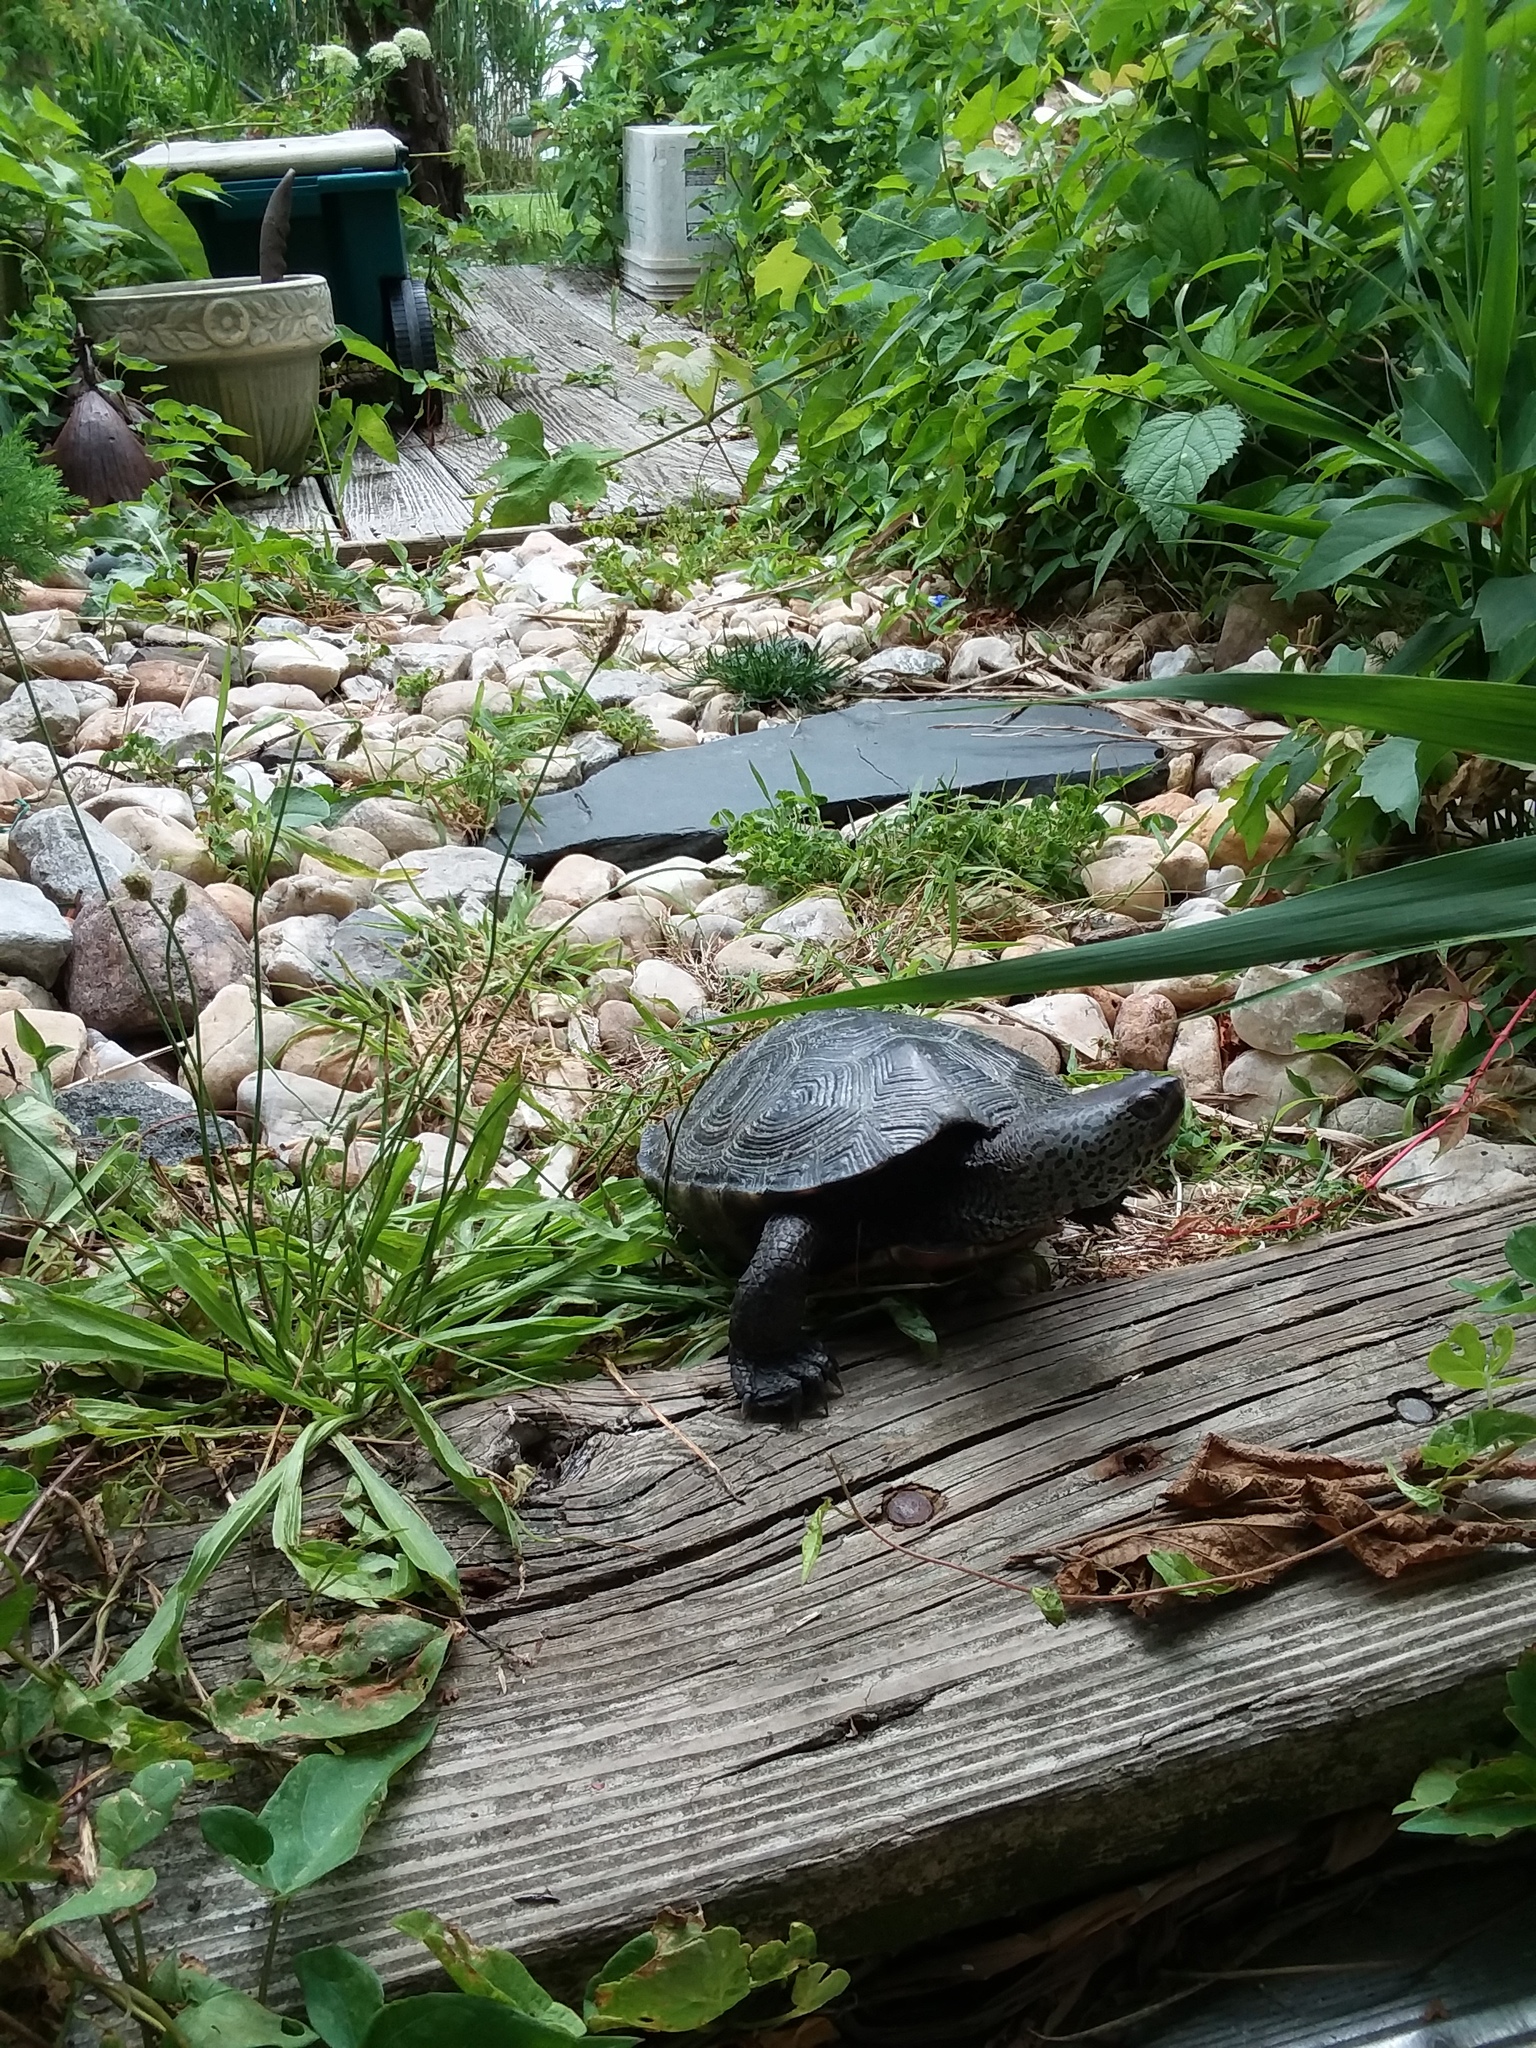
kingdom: Animalia
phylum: Chordata
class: Testudines
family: Emydidae
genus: Malaclemys
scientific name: Malaclemys terrapin
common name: Diamondback terrapin
